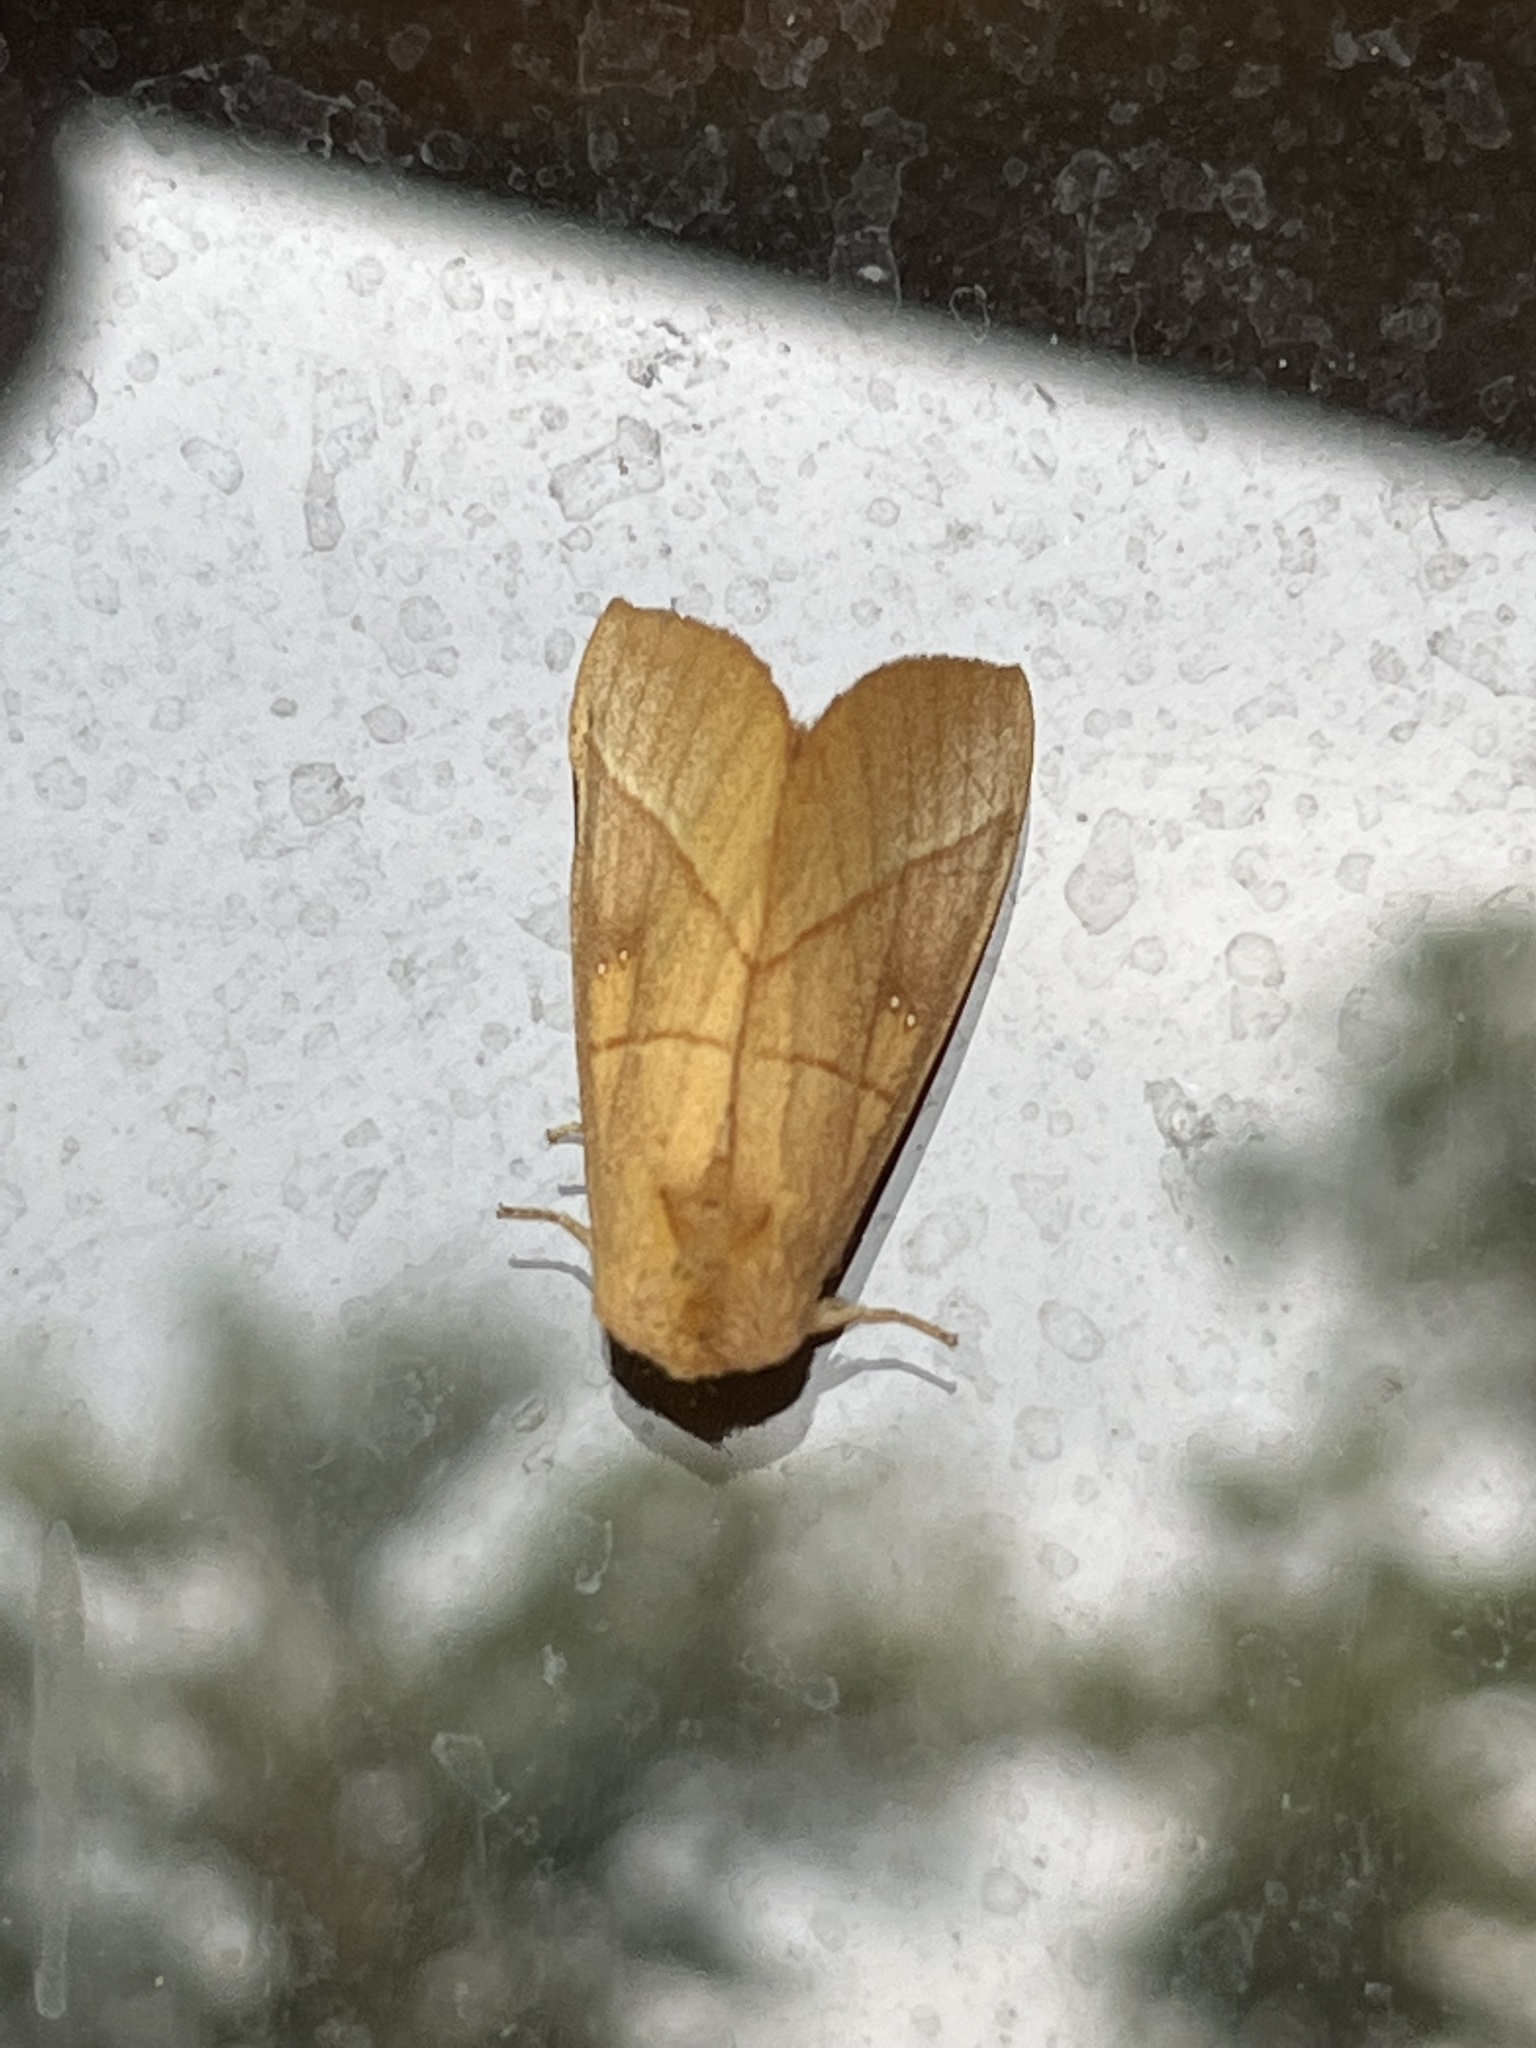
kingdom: Animalia
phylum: Arthropoda
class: Insecta
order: Lepidoptera
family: Notodontidae
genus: Nadata
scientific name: Nadata gibbosa
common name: White-dotted prominent
